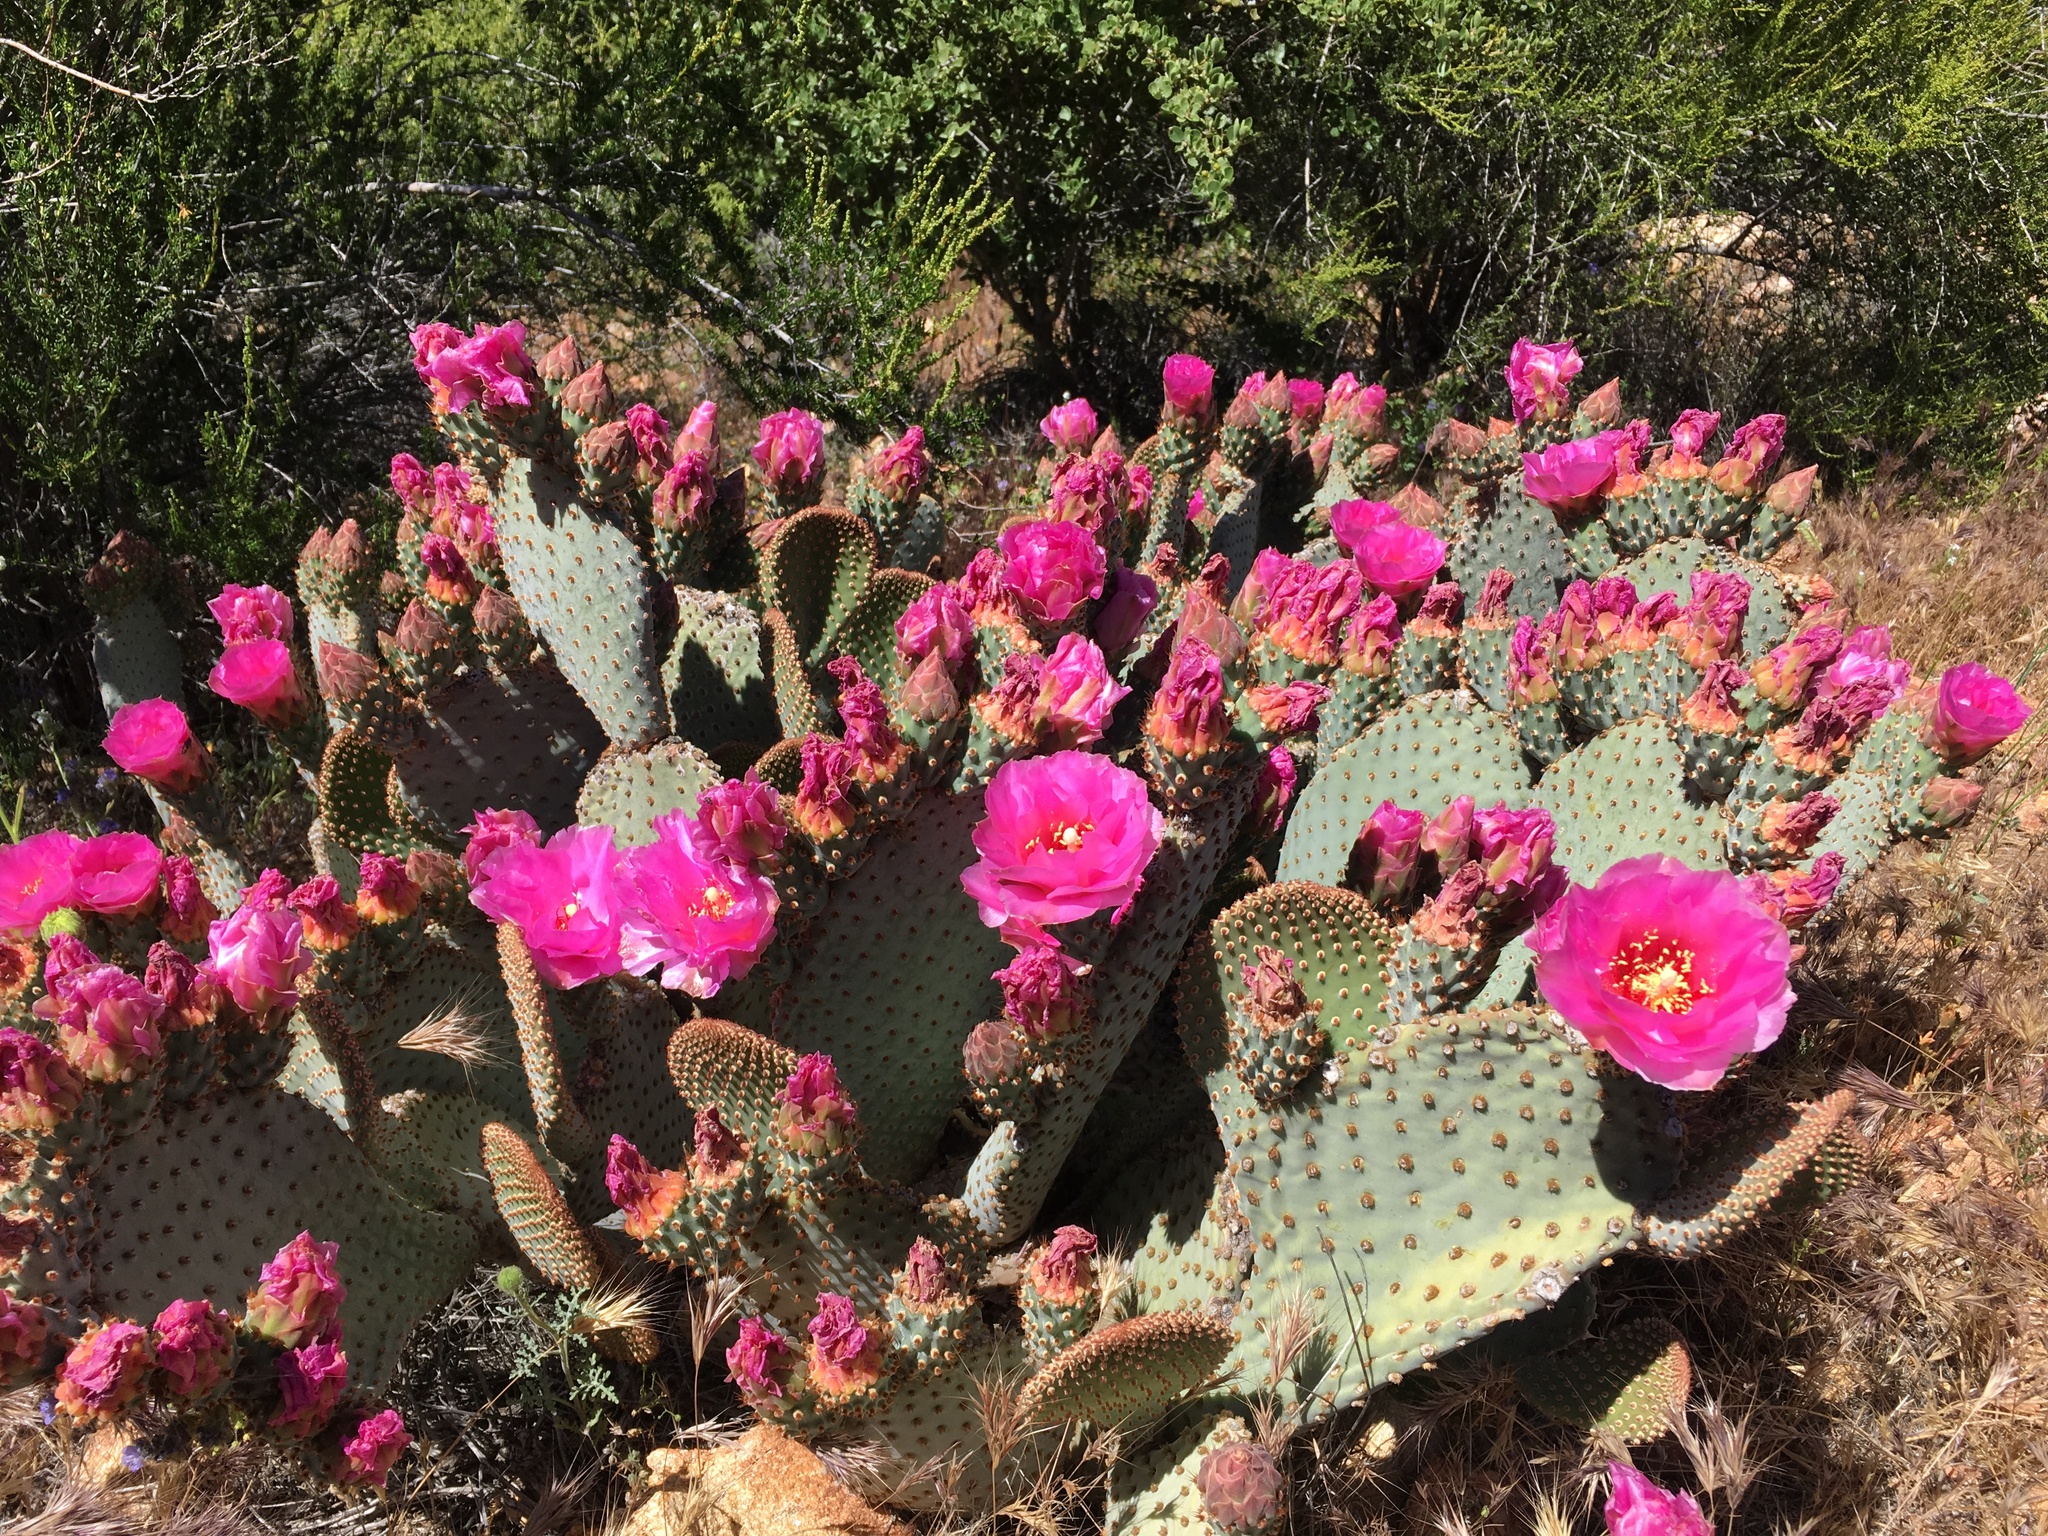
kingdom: Plantae
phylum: Tracheophyta
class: Magnoliopsida
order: Caryophyllales
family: Cactaceae
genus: Opuntia
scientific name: Opuntia basilaris
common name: Beavertail prickly-pear
